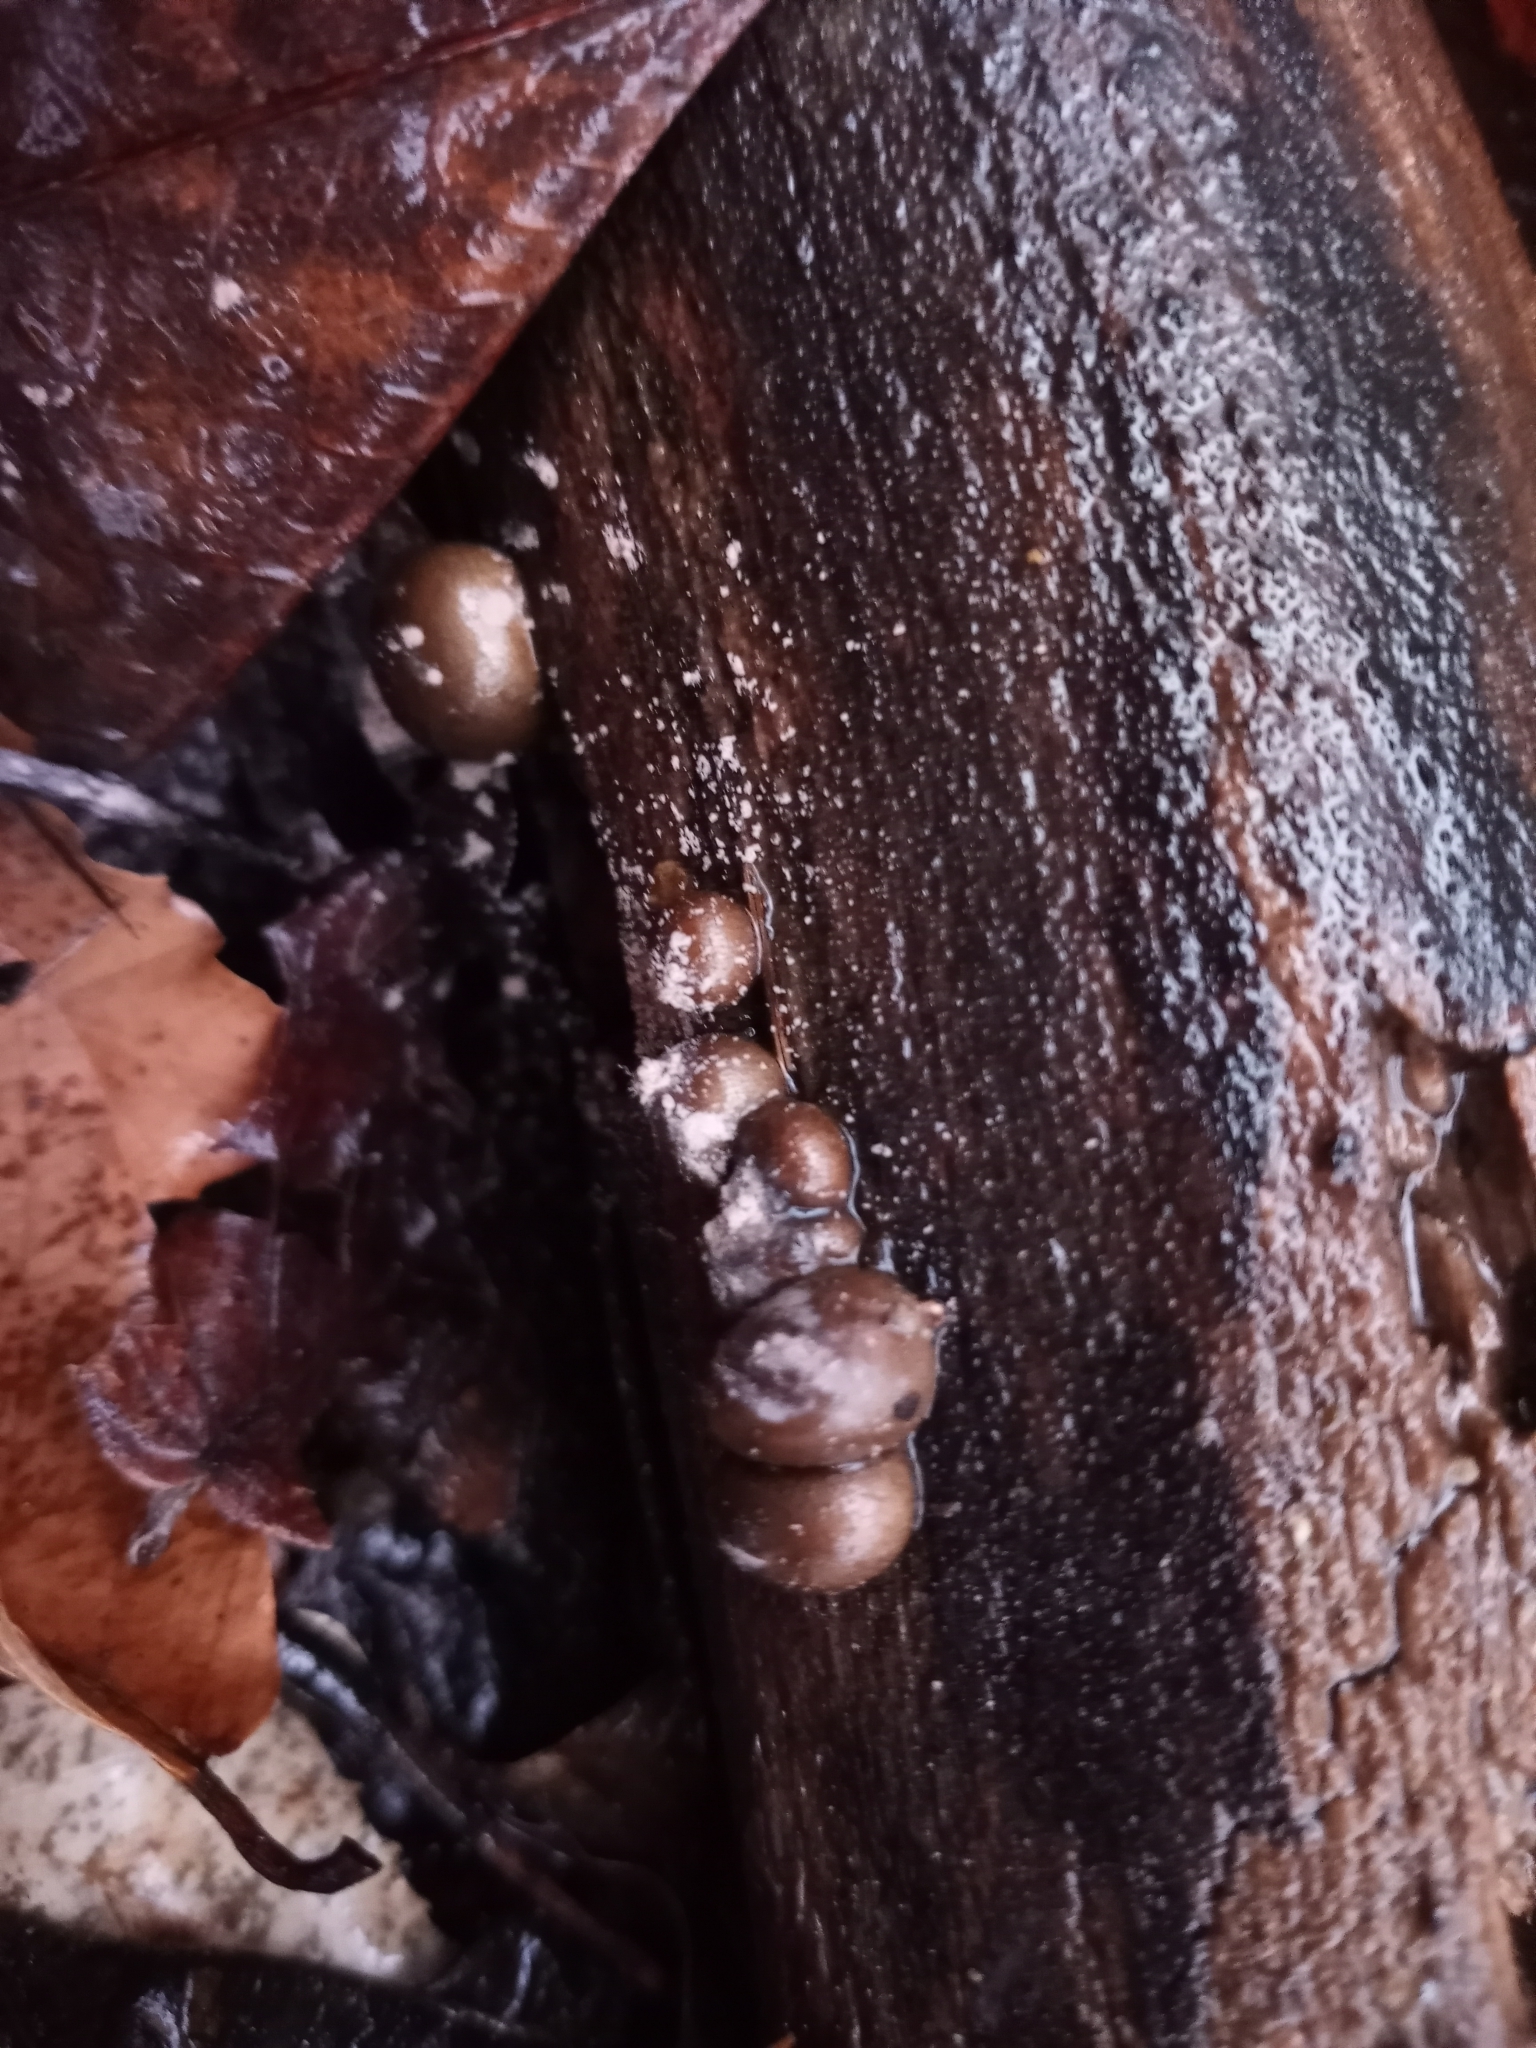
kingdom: Protozoa
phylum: Mycetozoa
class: Myxomycetes
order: Cribrariales
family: Tubiferaceae
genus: Lycogala
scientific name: Lycogala epidendrum
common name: Wolf's milk
